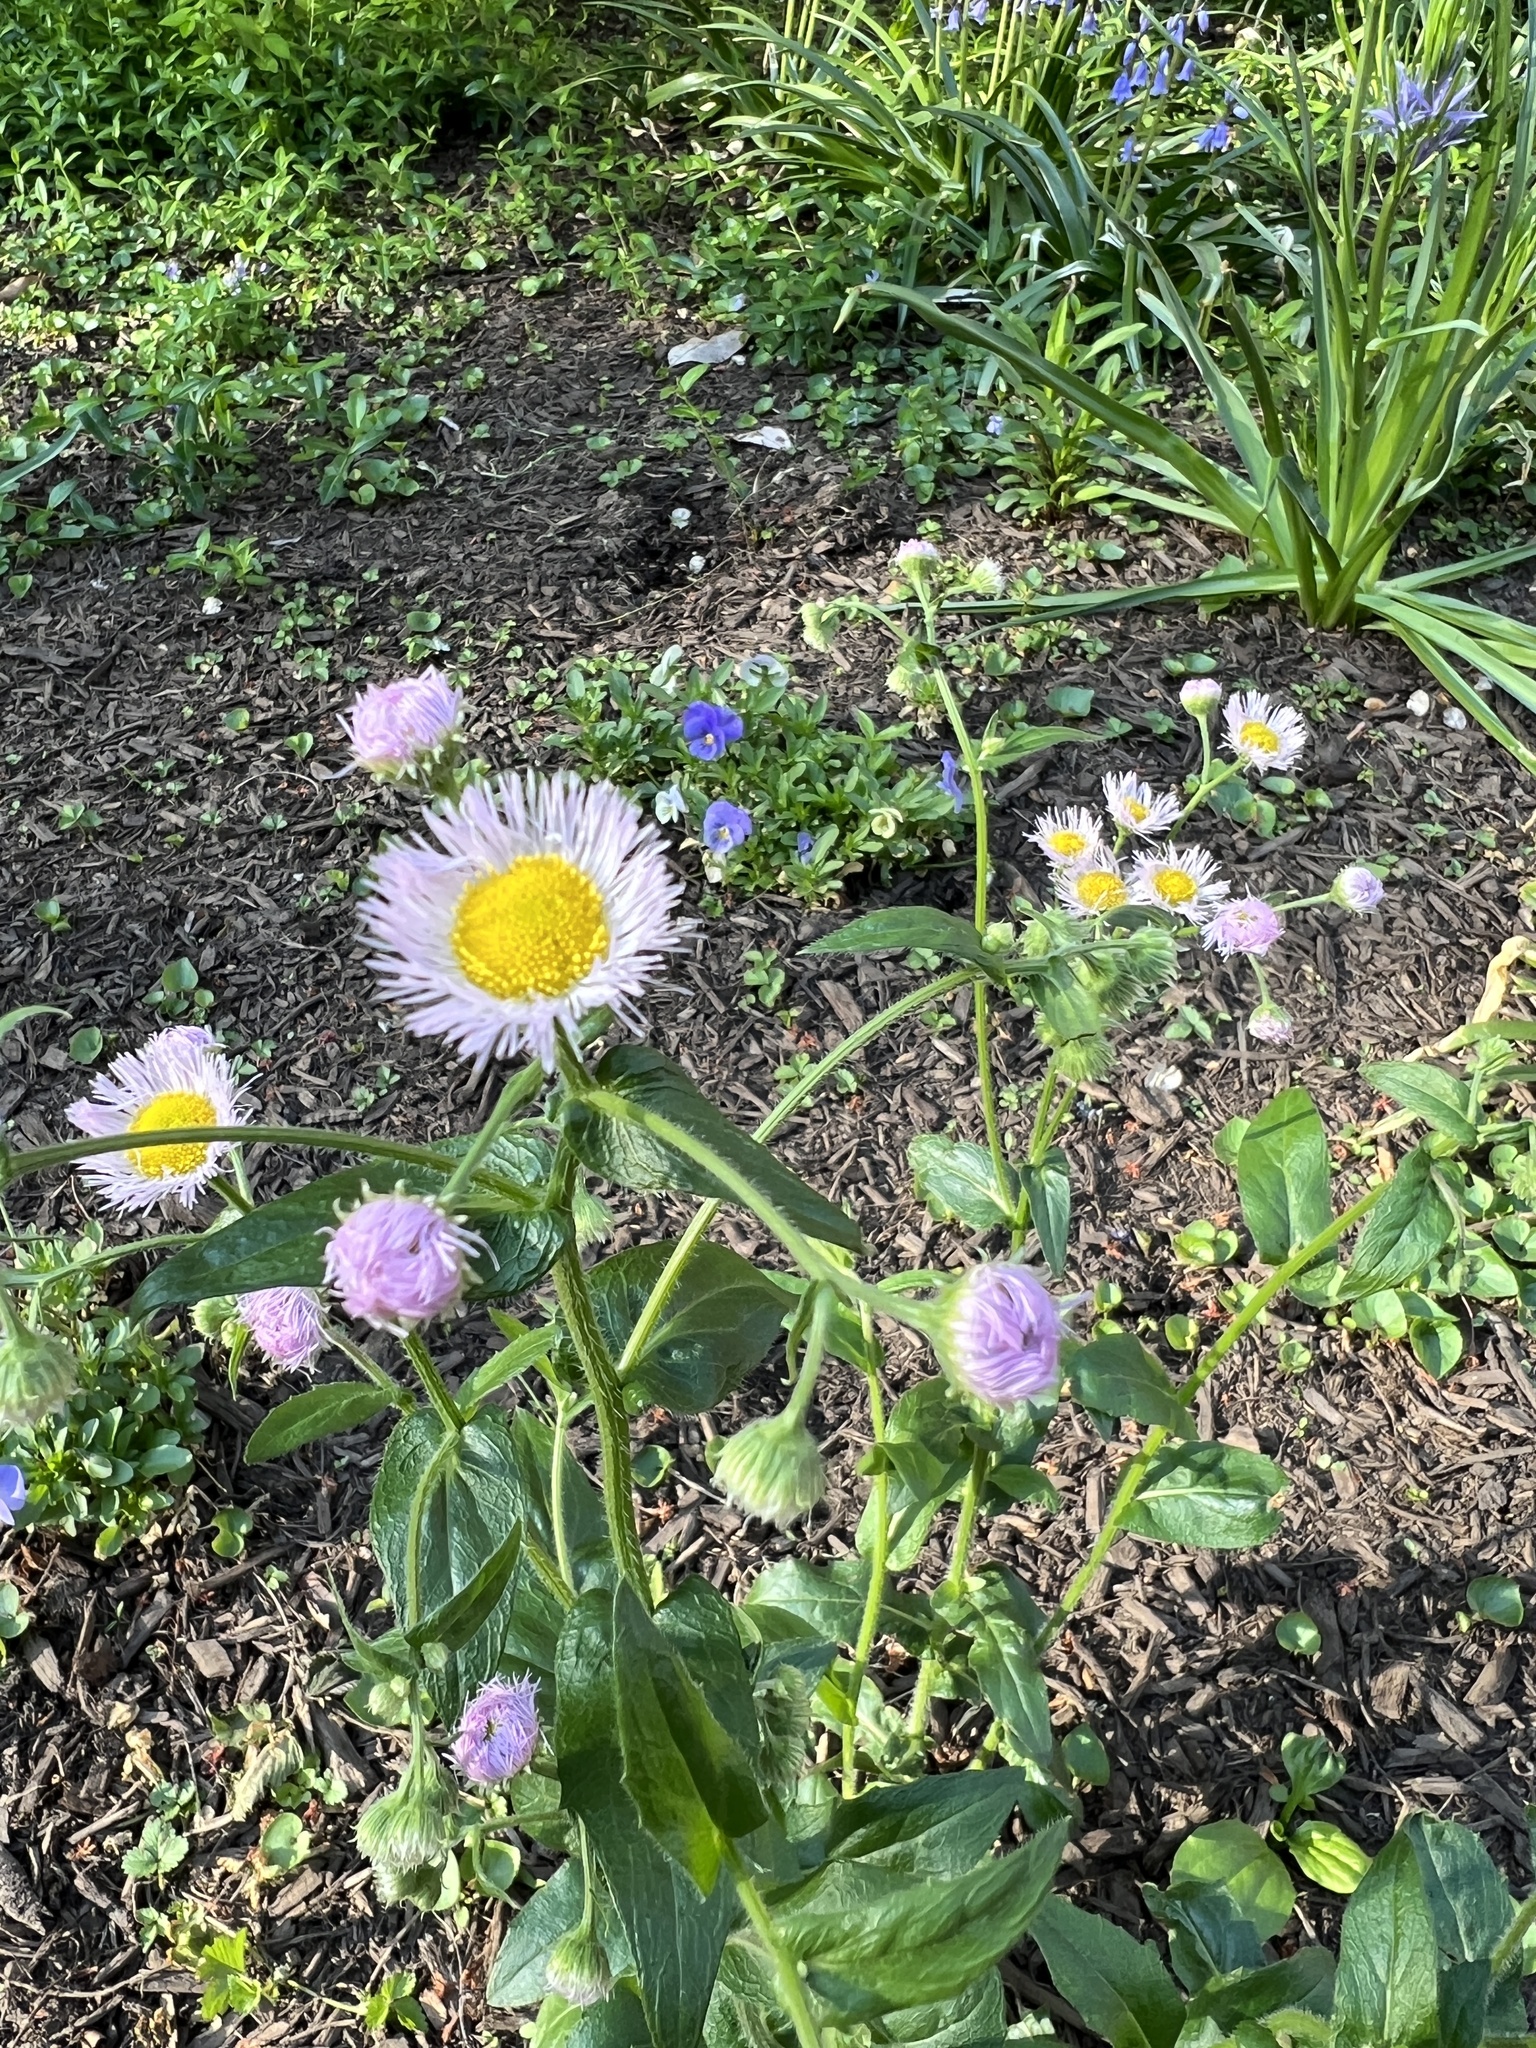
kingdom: Plantae
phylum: Tracheophyta
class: Magnoliopsida
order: Asterales
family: Asteraceae
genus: Erigeron
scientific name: Erigeron philadelphicus
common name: Robin's-plantain
